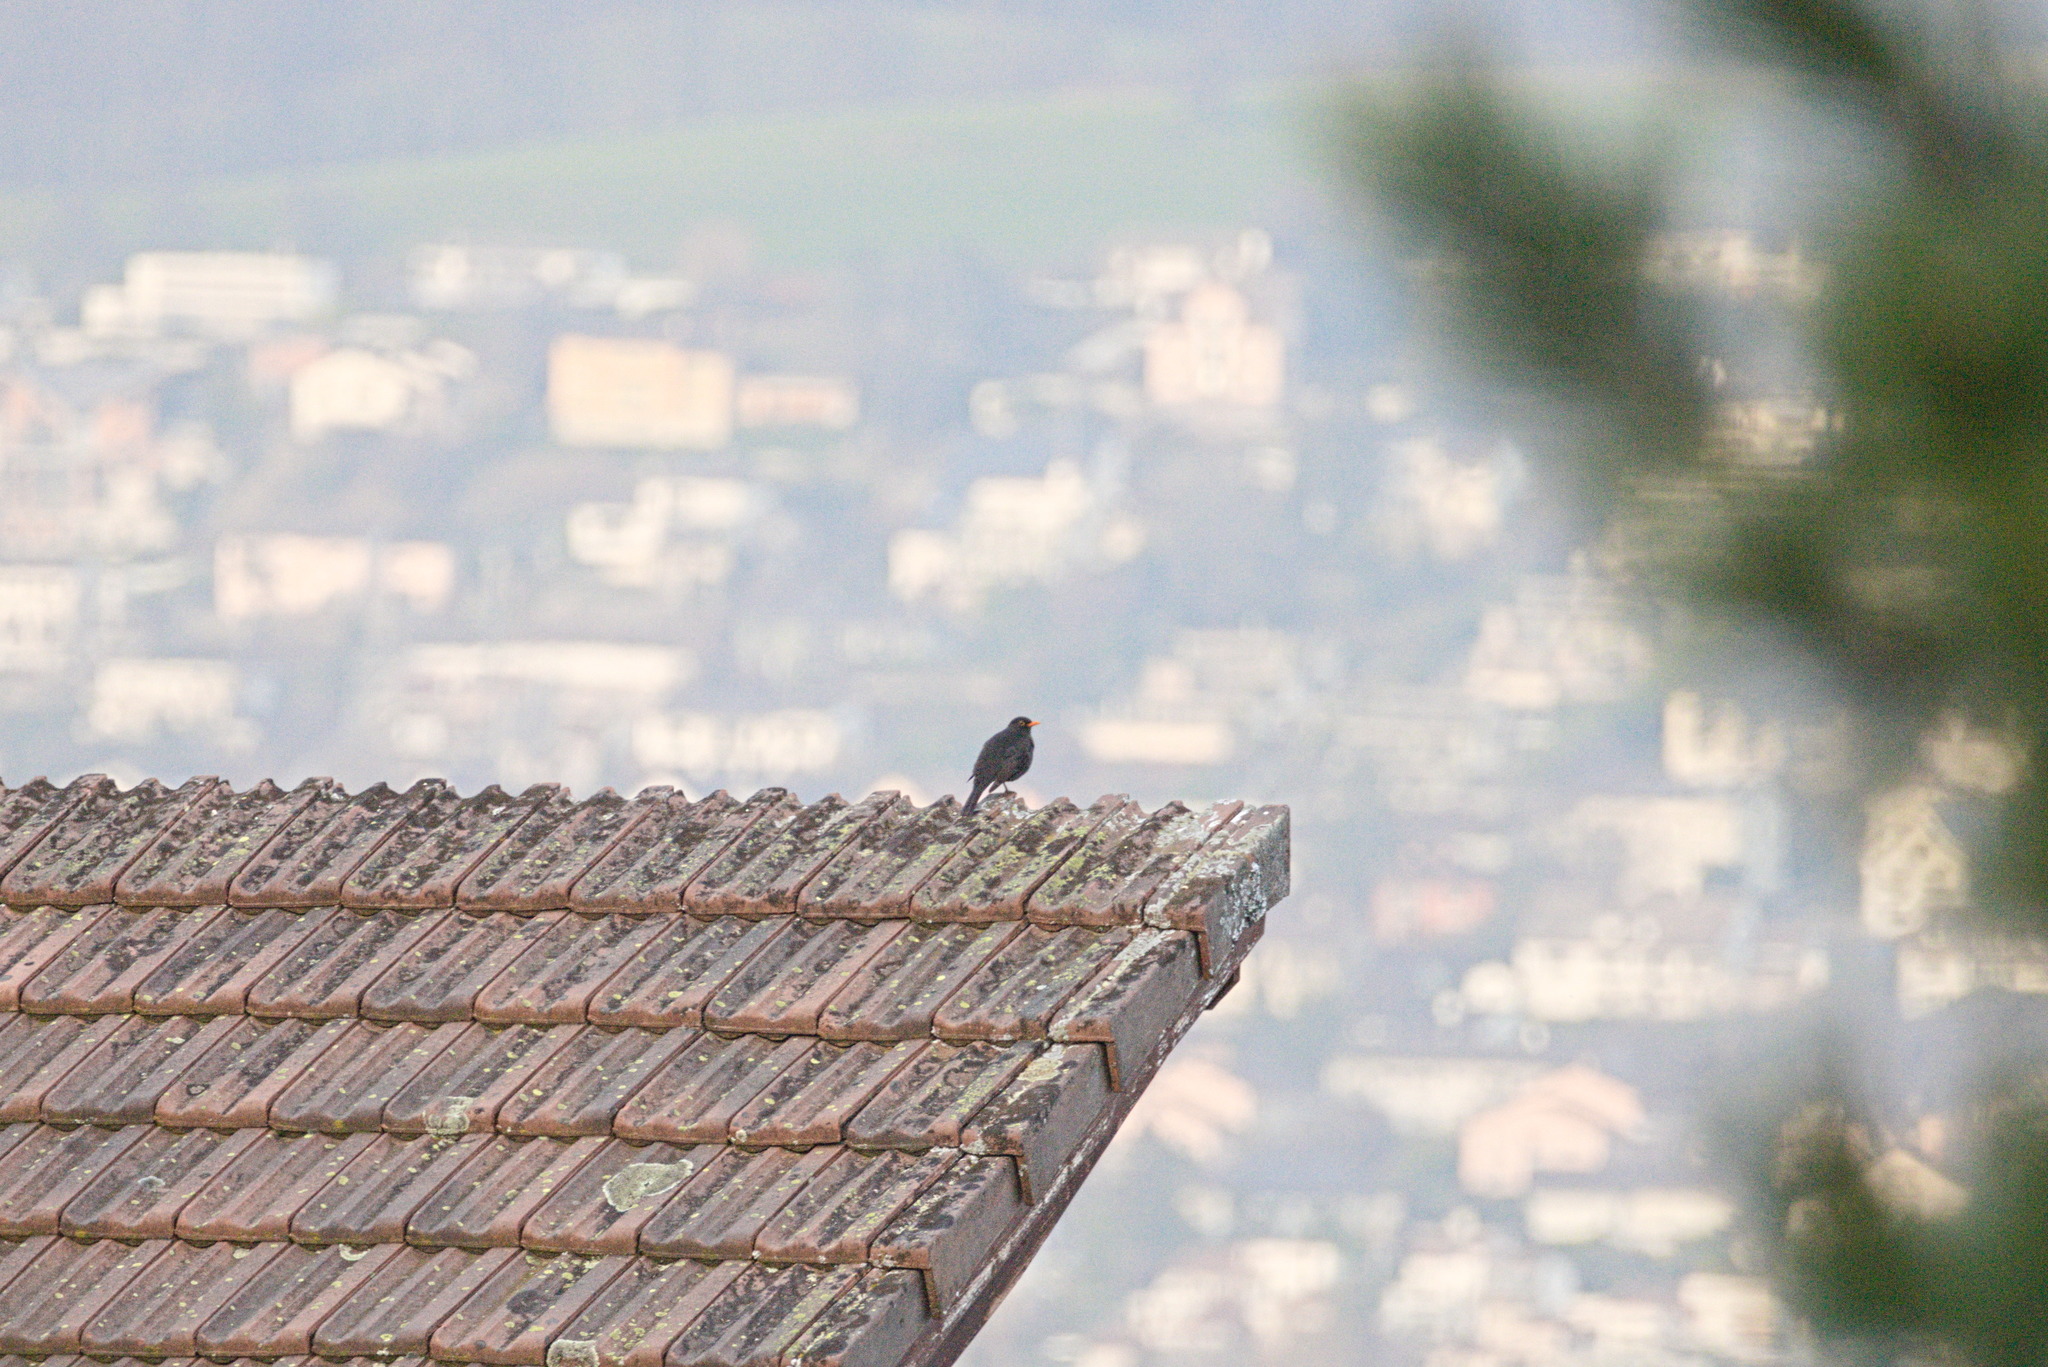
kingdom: Animalia
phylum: Chordata
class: Aves
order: Passeriformes
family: Turdidae
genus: Turdus
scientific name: Turdus merula
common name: Common blackbird
